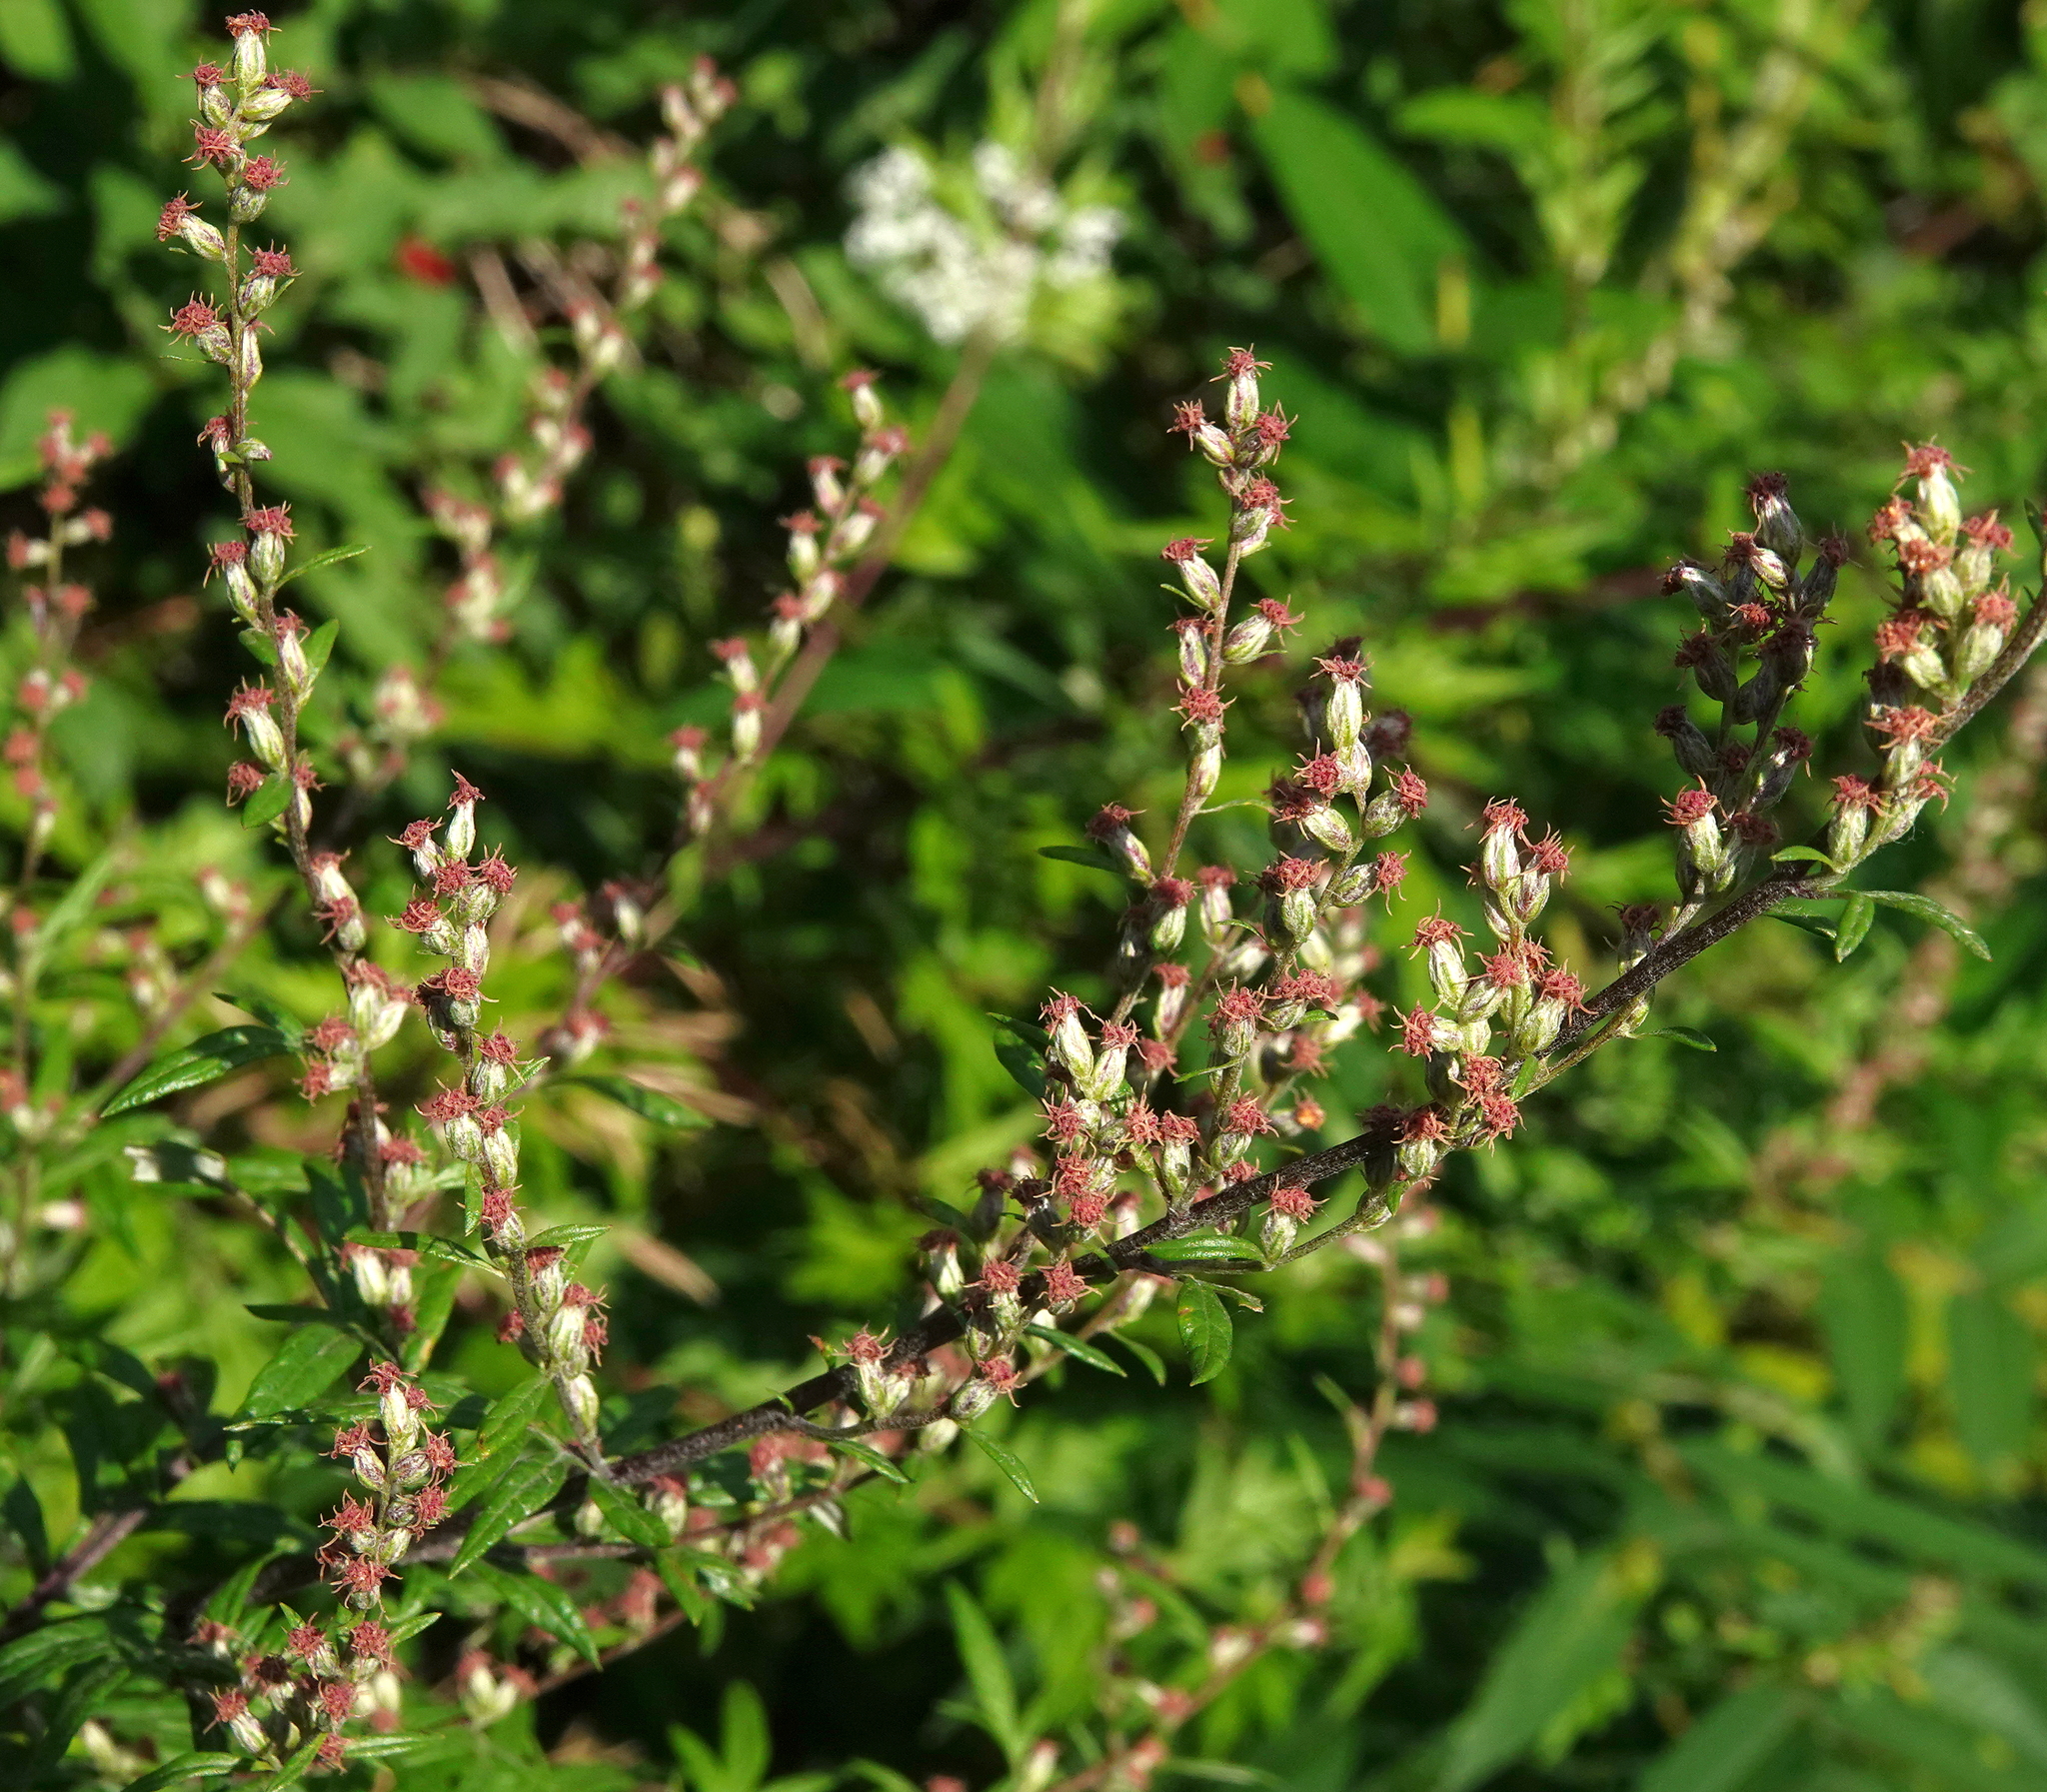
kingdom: Plantae
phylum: Tracheophyta
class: Magnoliopsida
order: Asterales
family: Asteraceae
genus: Artemisia
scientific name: Artemisia vulgaris
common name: Mugwort
